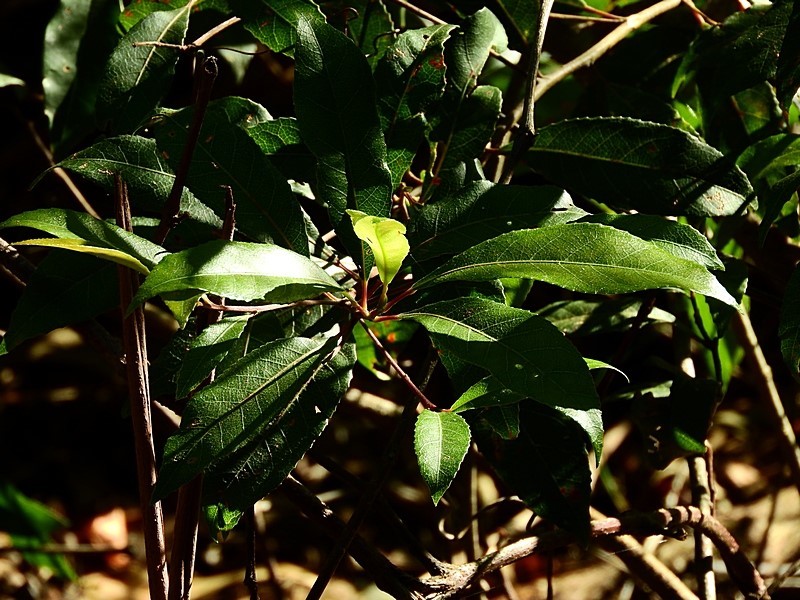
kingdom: Plantae
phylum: Tracheophyta
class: Magnoliopsida
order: Oxalidales
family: Elaeocarpaceae
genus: Elaeocarpus
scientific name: Elaeocarpus reticulatus
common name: Ash quandong
